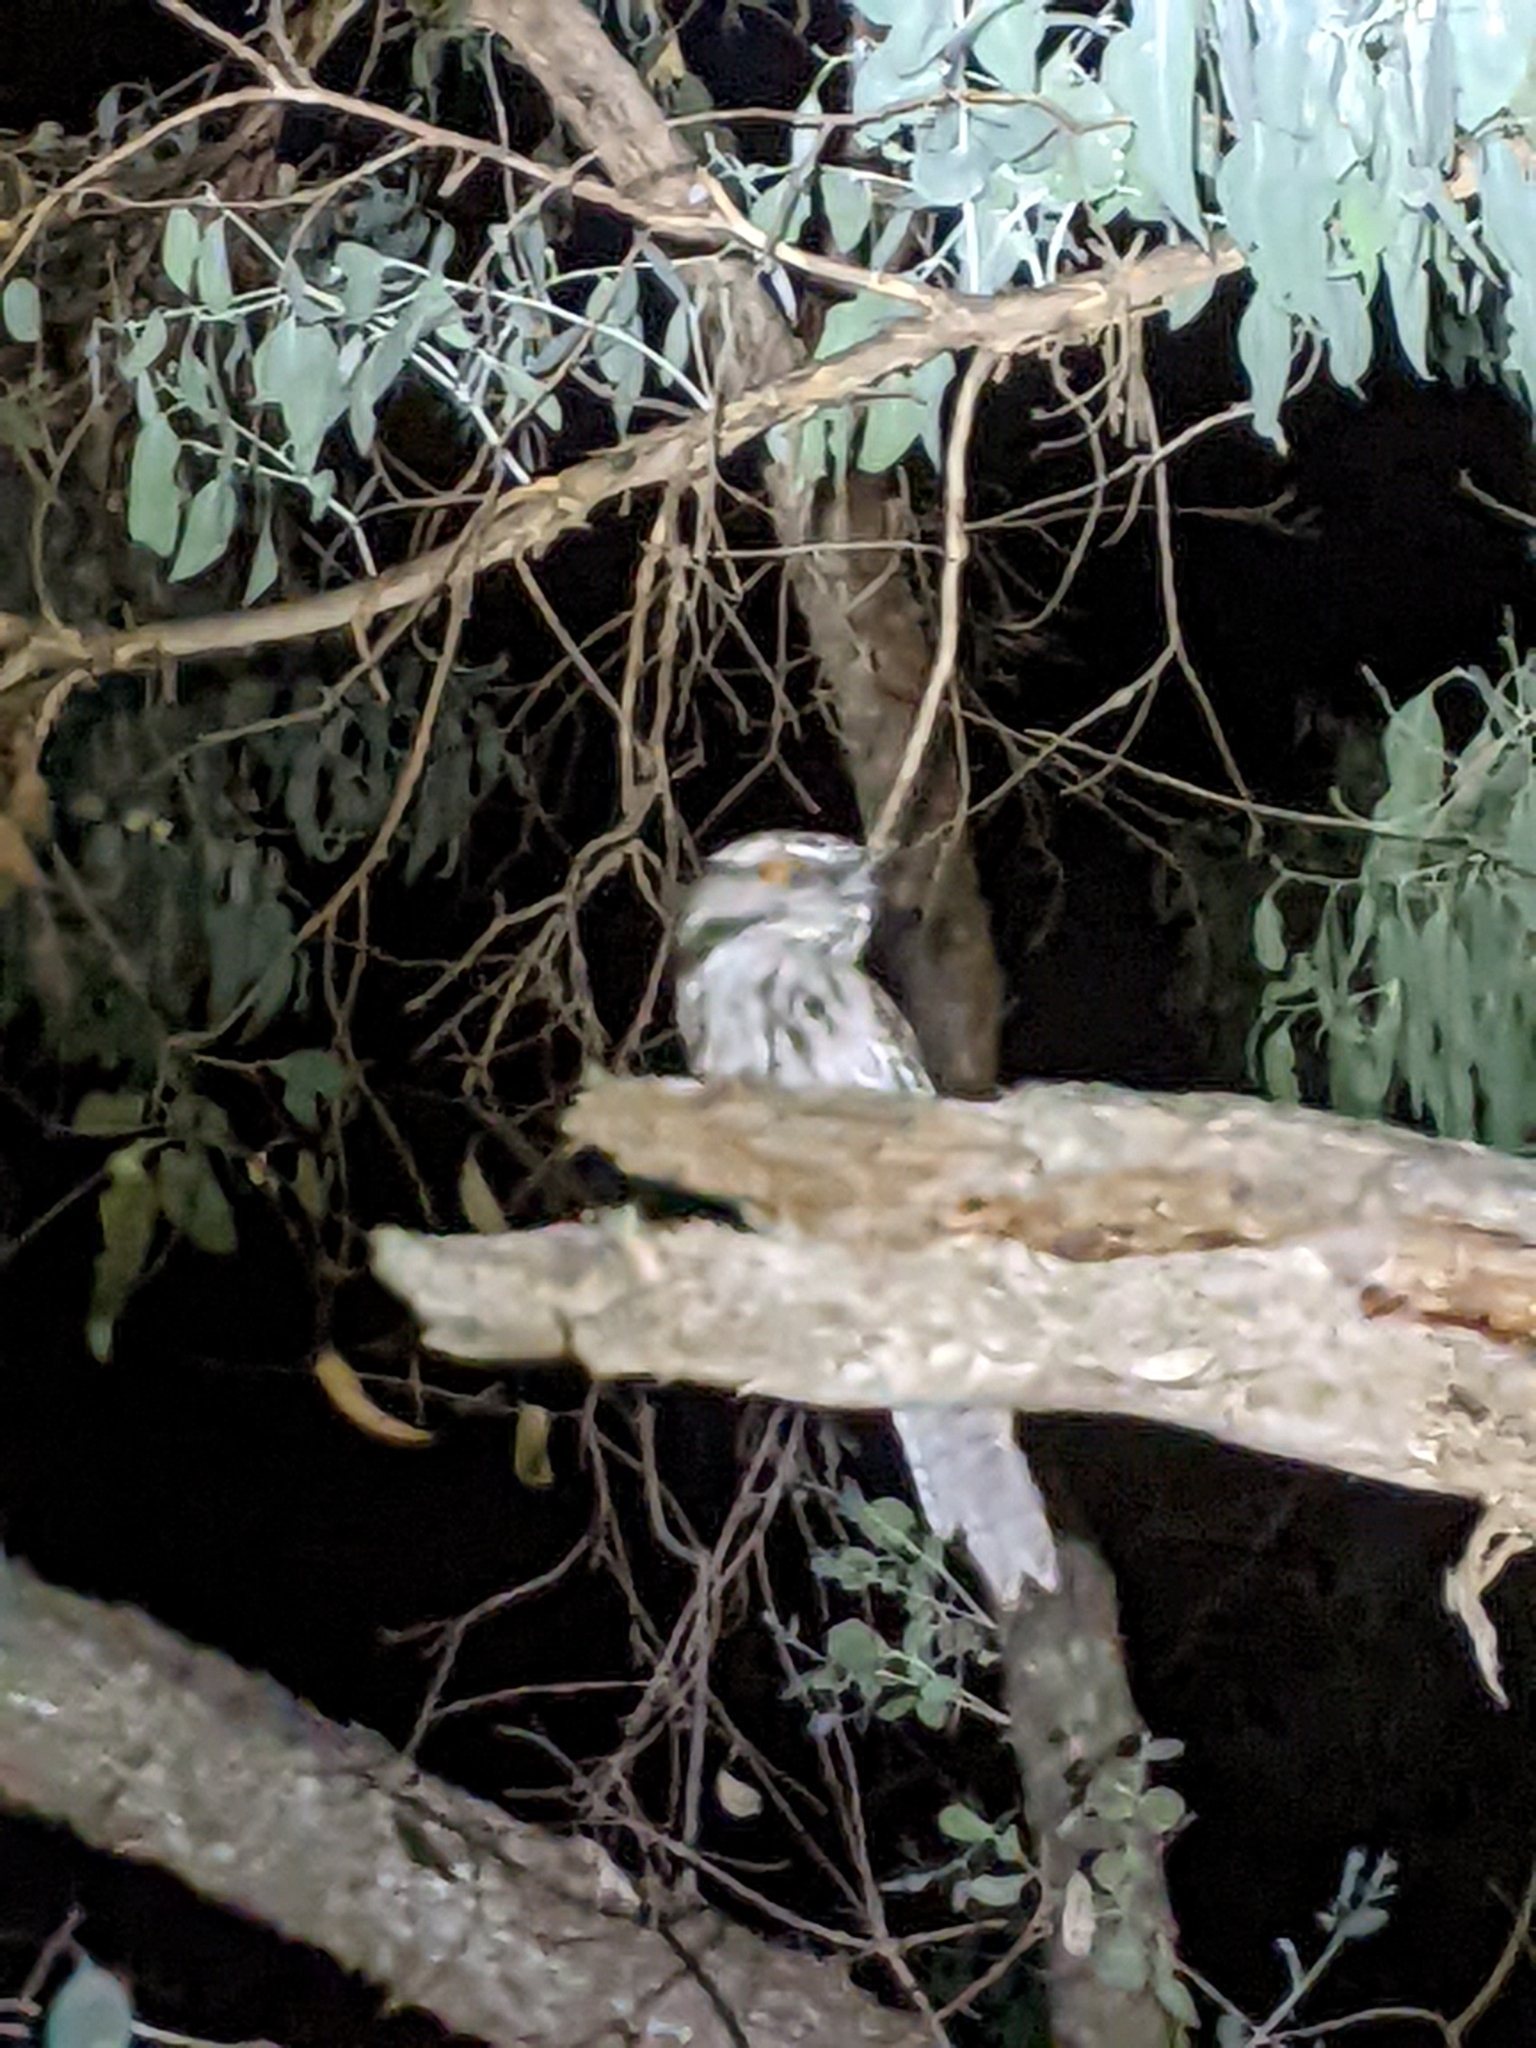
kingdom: Animalia
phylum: Chordata
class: Aves
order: Caprimulgiformes
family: Podargidae
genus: Podargus
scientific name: Podargus strigoides
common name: Tawny frogmouth
